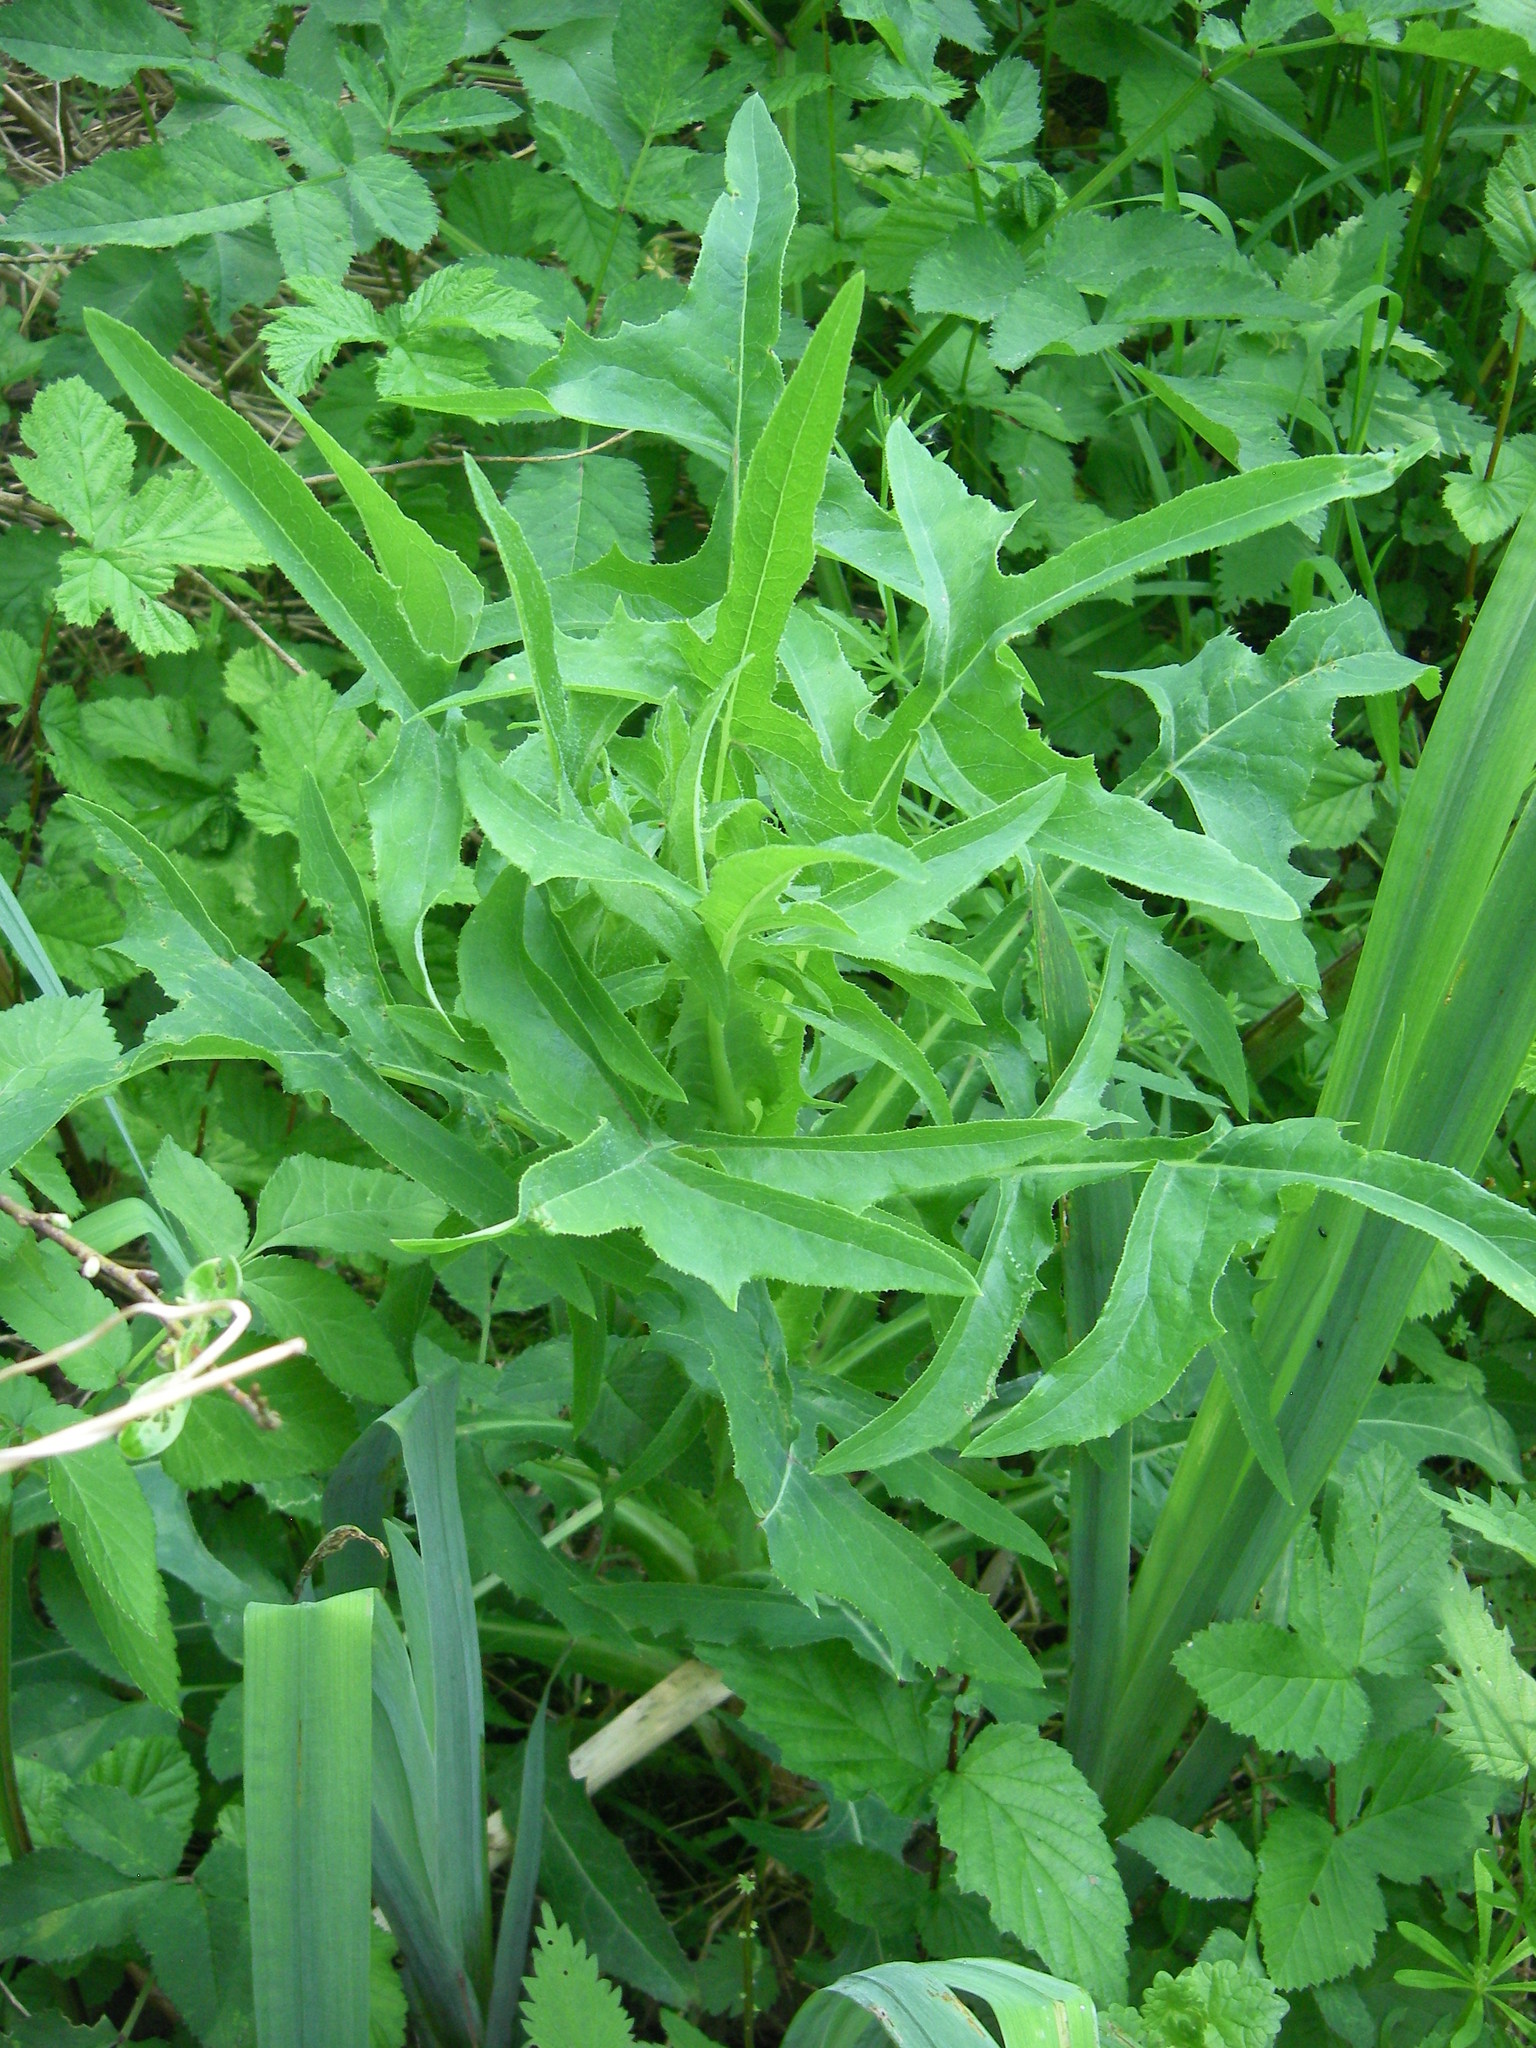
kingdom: Plantae
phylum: Tracheophyta
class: Magnoliopsida
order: Asterales
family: Asteraceae
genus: Sonchus
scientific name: Sonchus palustris
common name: Marsh sow-thistle
